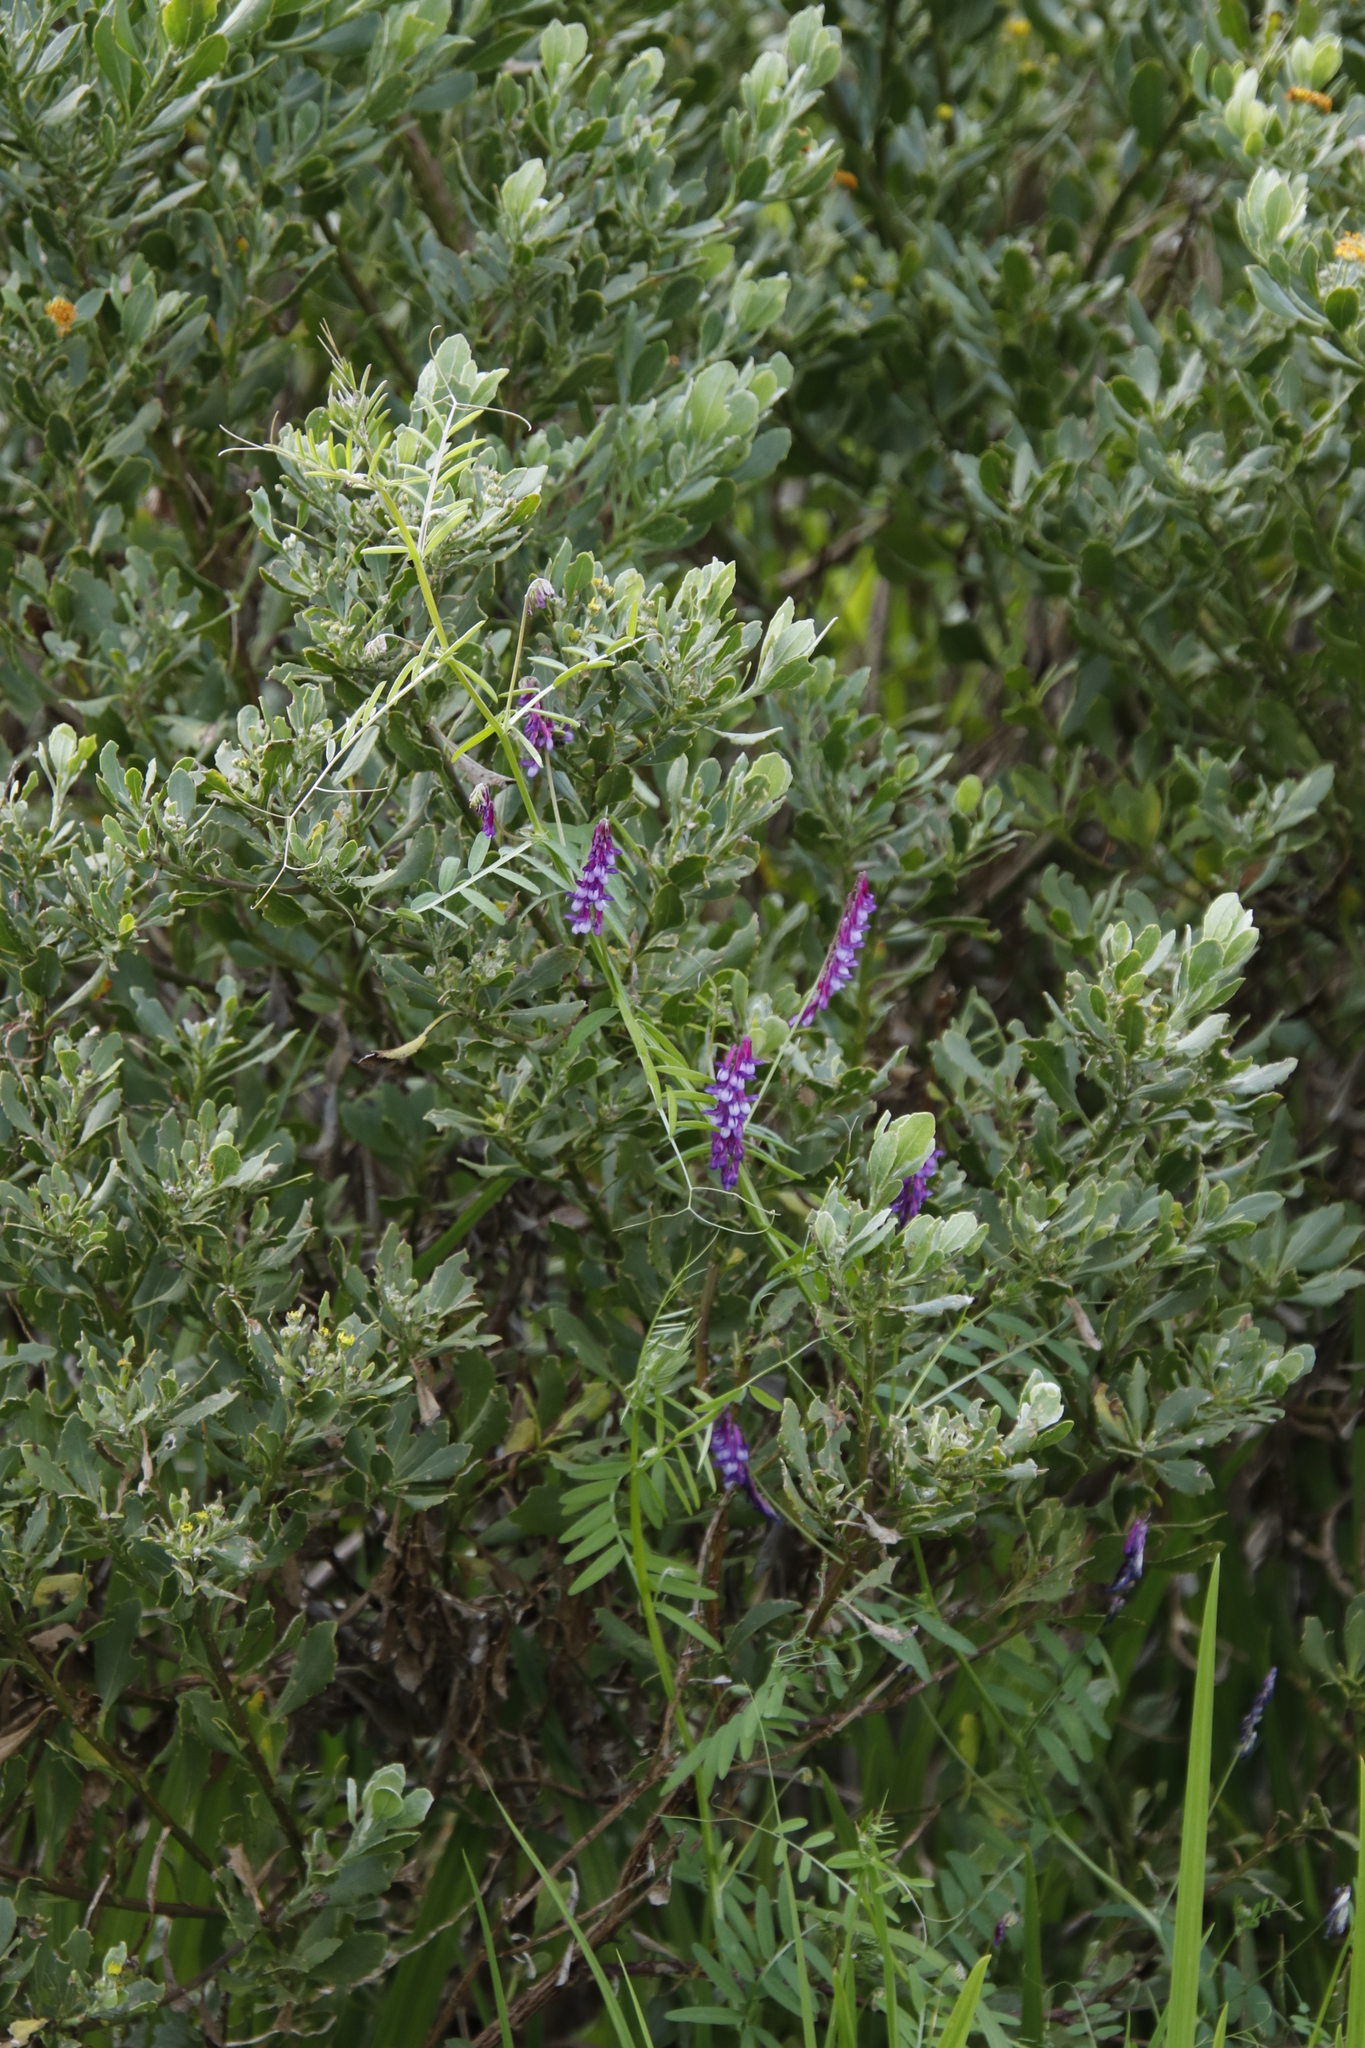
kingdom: Plantae
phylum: Tracheophyta
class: Magnoliopsida
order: Fabales
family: Fabaceae
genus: Vicia
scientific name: Vicia villosa
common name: Fodder vetch
